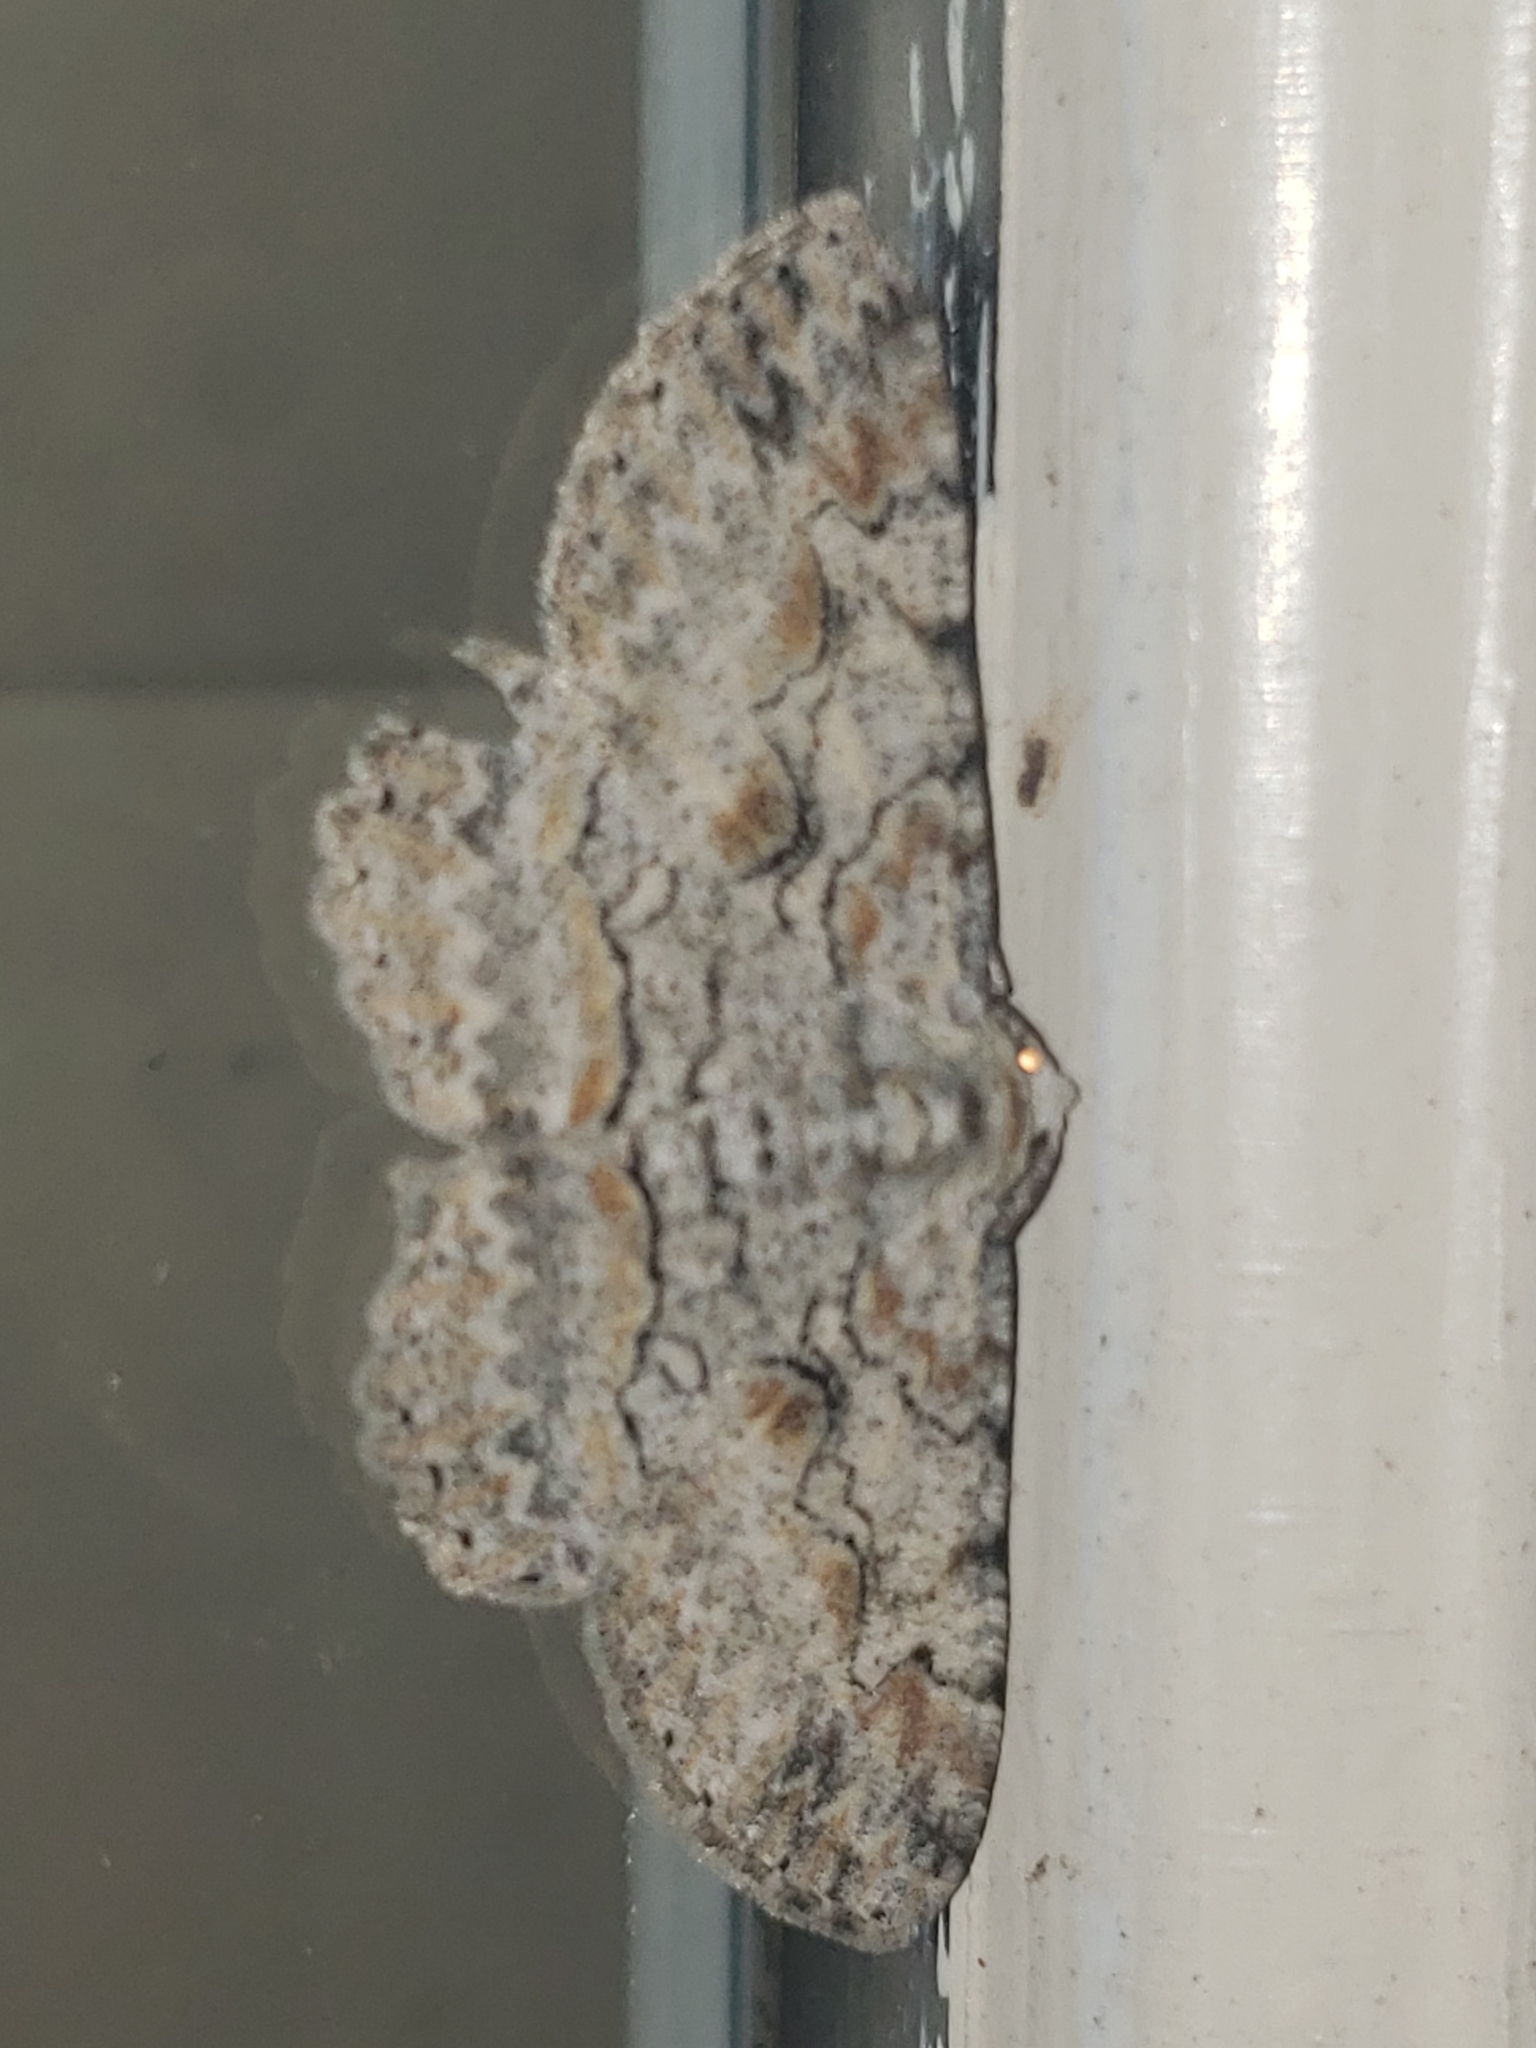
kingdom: Animalia
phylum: Arthropoda
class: Insecta
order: Lepidoptera
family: Geometridae
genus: Iridopsis
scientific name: Iridopsis defectaria
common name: Brown-shaded gray
